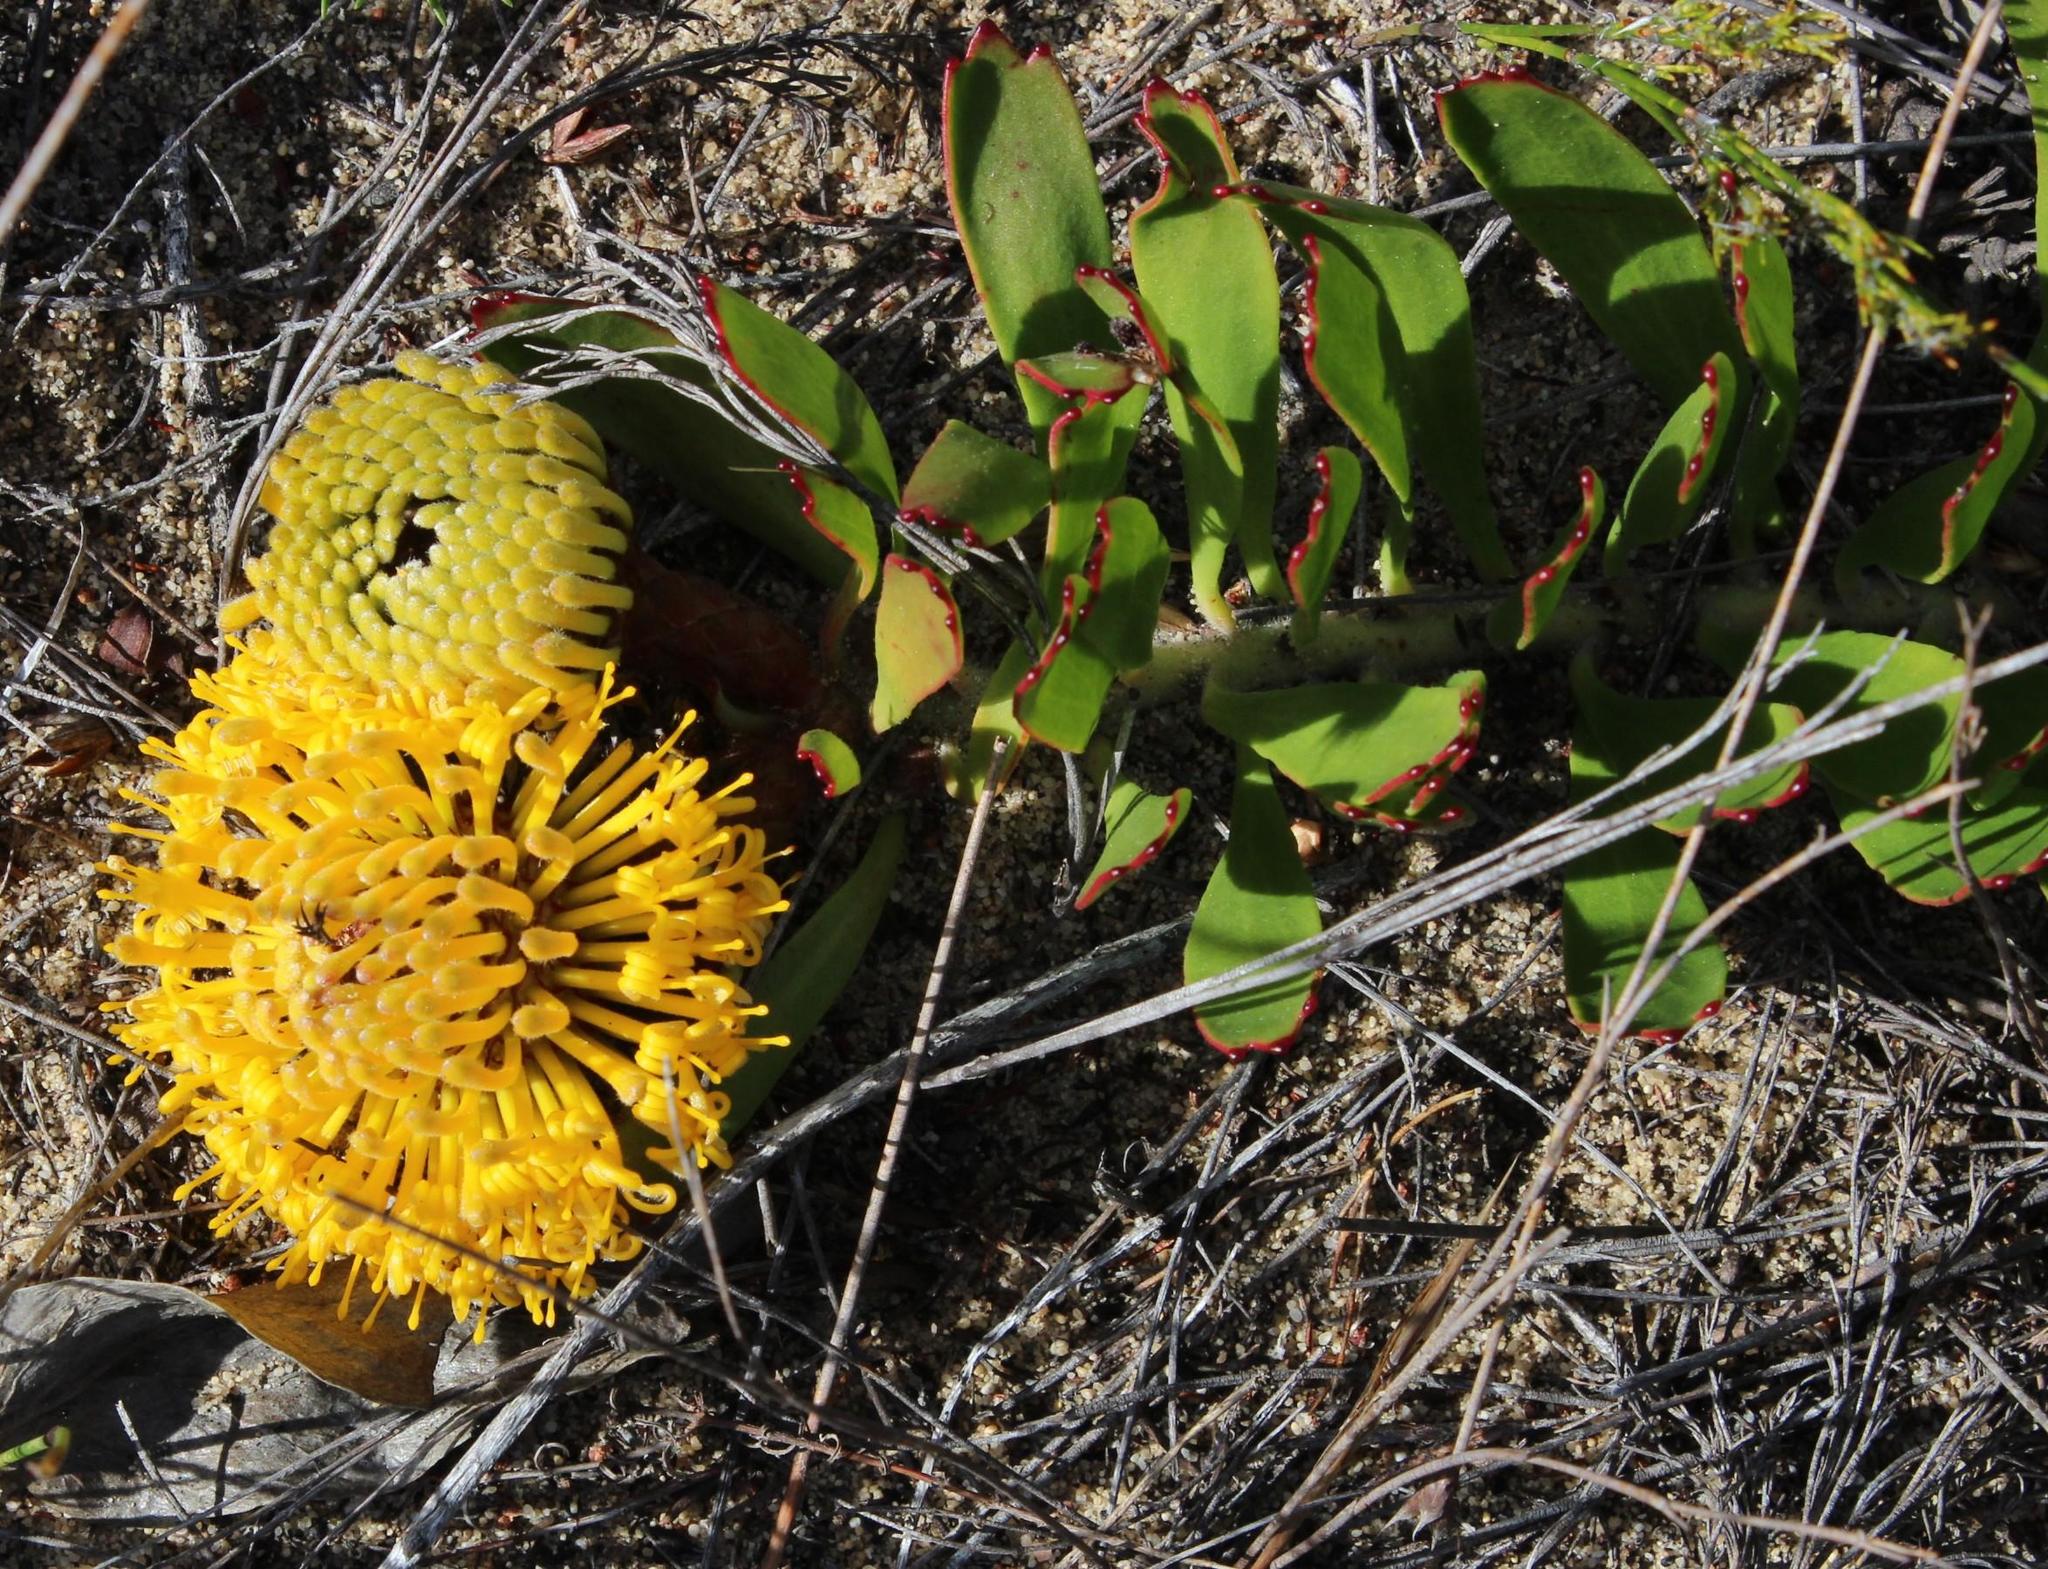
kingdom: Plantae
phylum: Tracheophyta
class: Magnoliopsida
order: Proteales
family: Proteaceae
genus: Leucospermum
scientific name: Leucospermum hypophyllocarpodendron
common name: Snakestem pincushion
